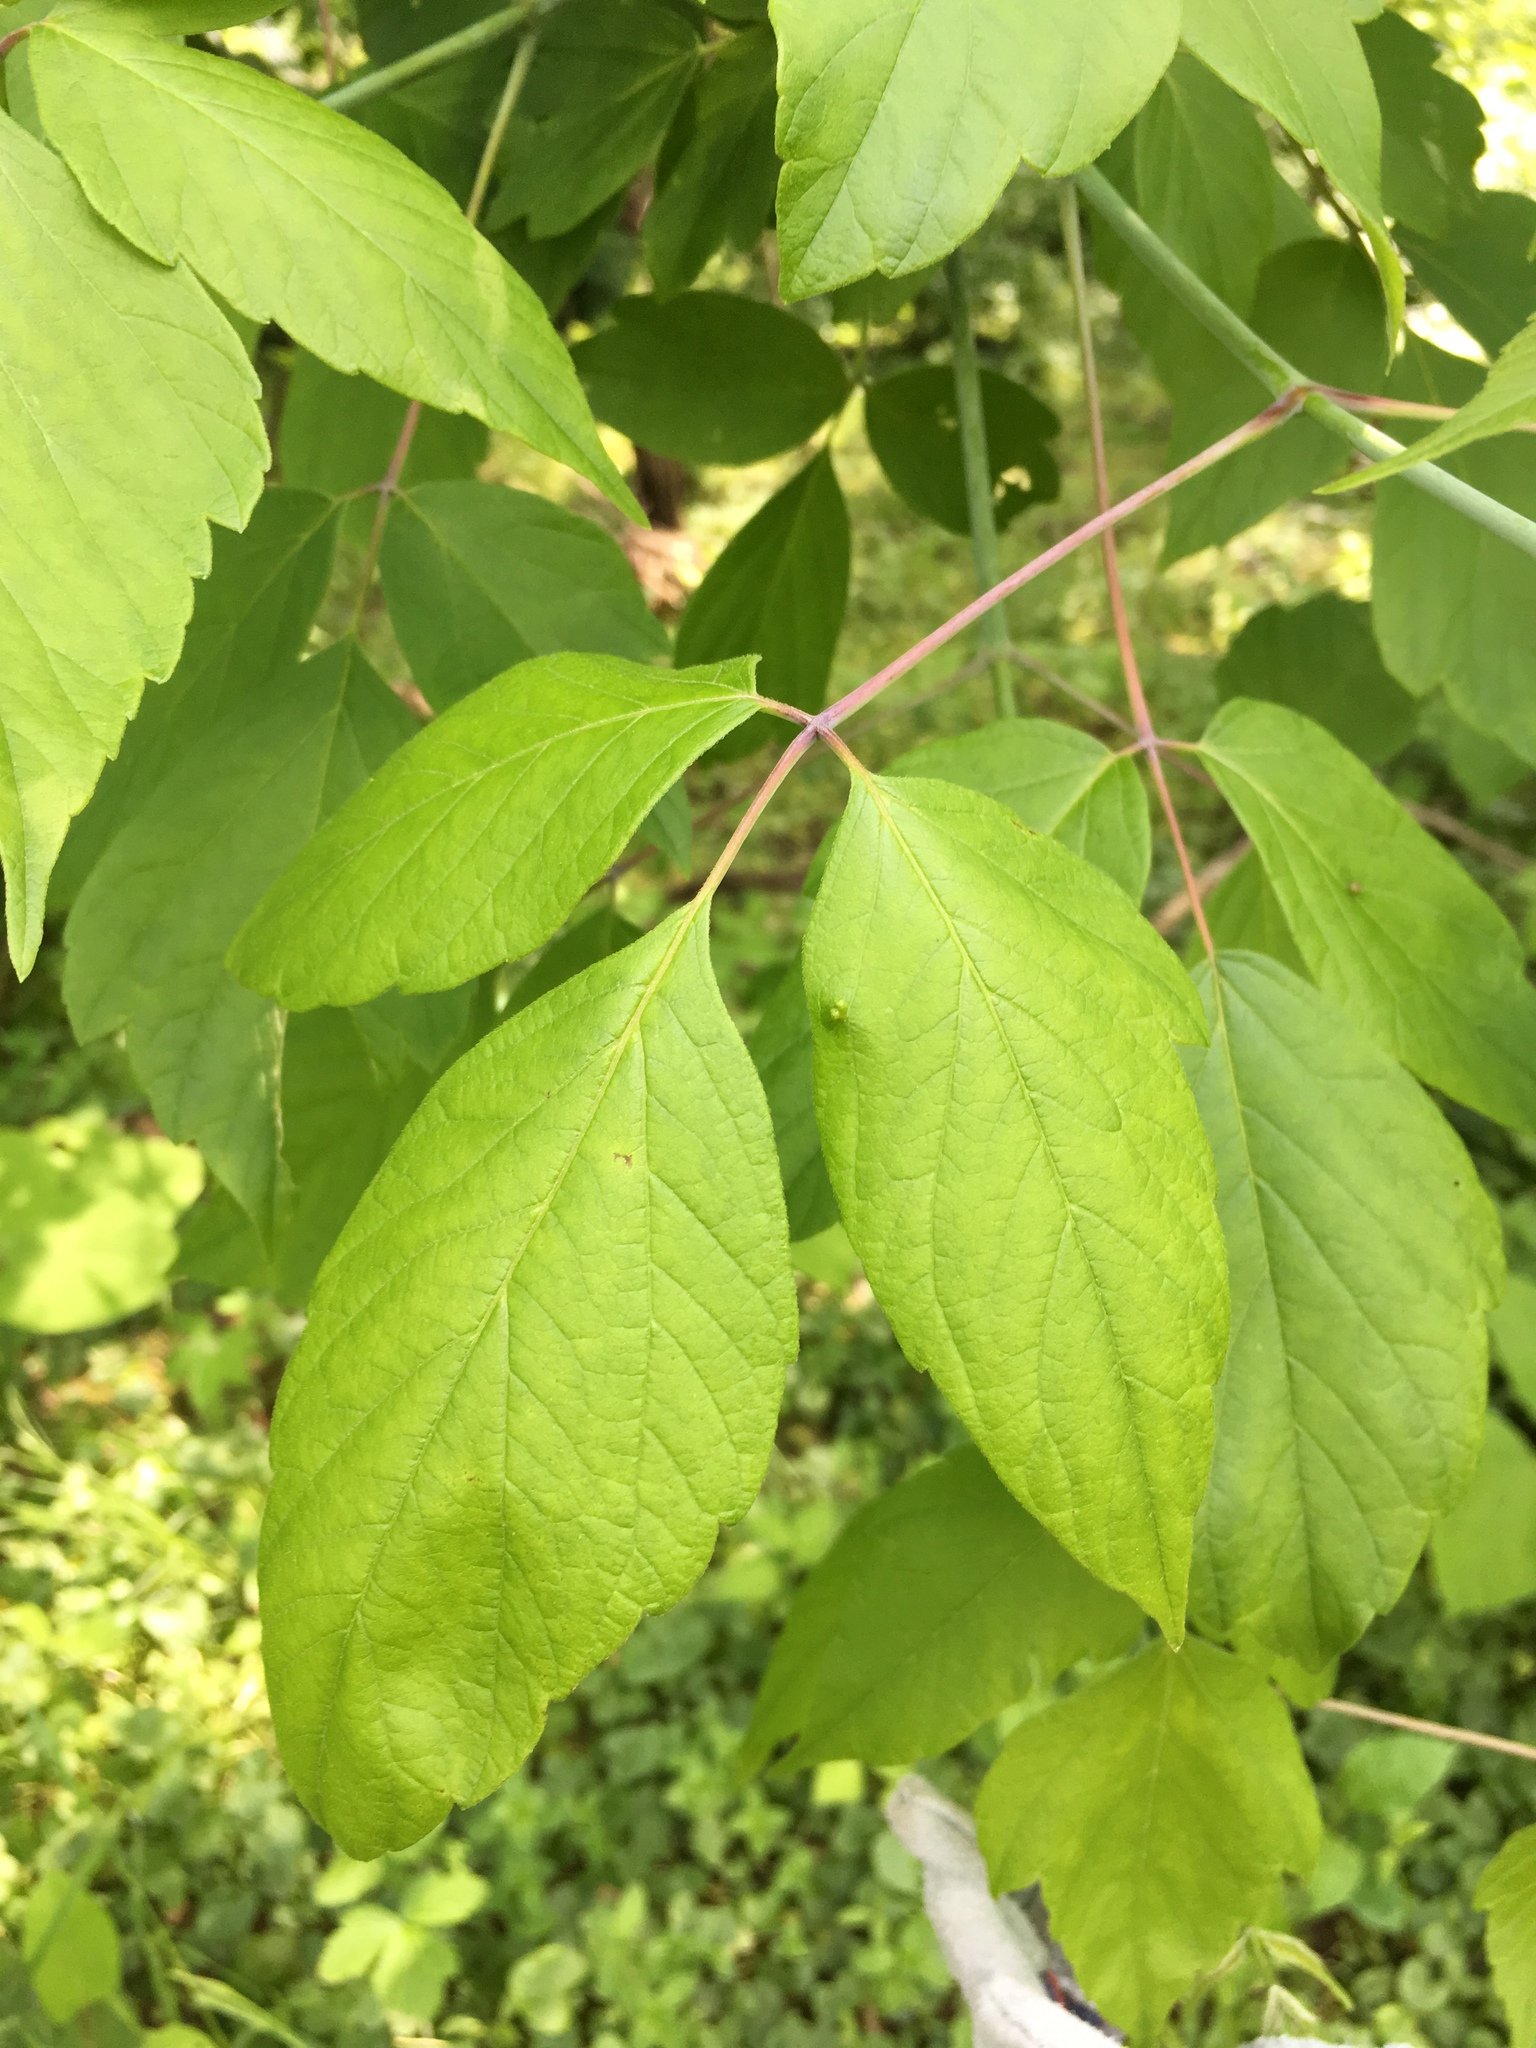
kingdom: Plantae
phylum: Tracheophyta
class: Magnoliopsida
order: Sapindales
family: Sapindaceae
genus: Acer
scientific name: Acer negundo
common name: Ashleaf maple
